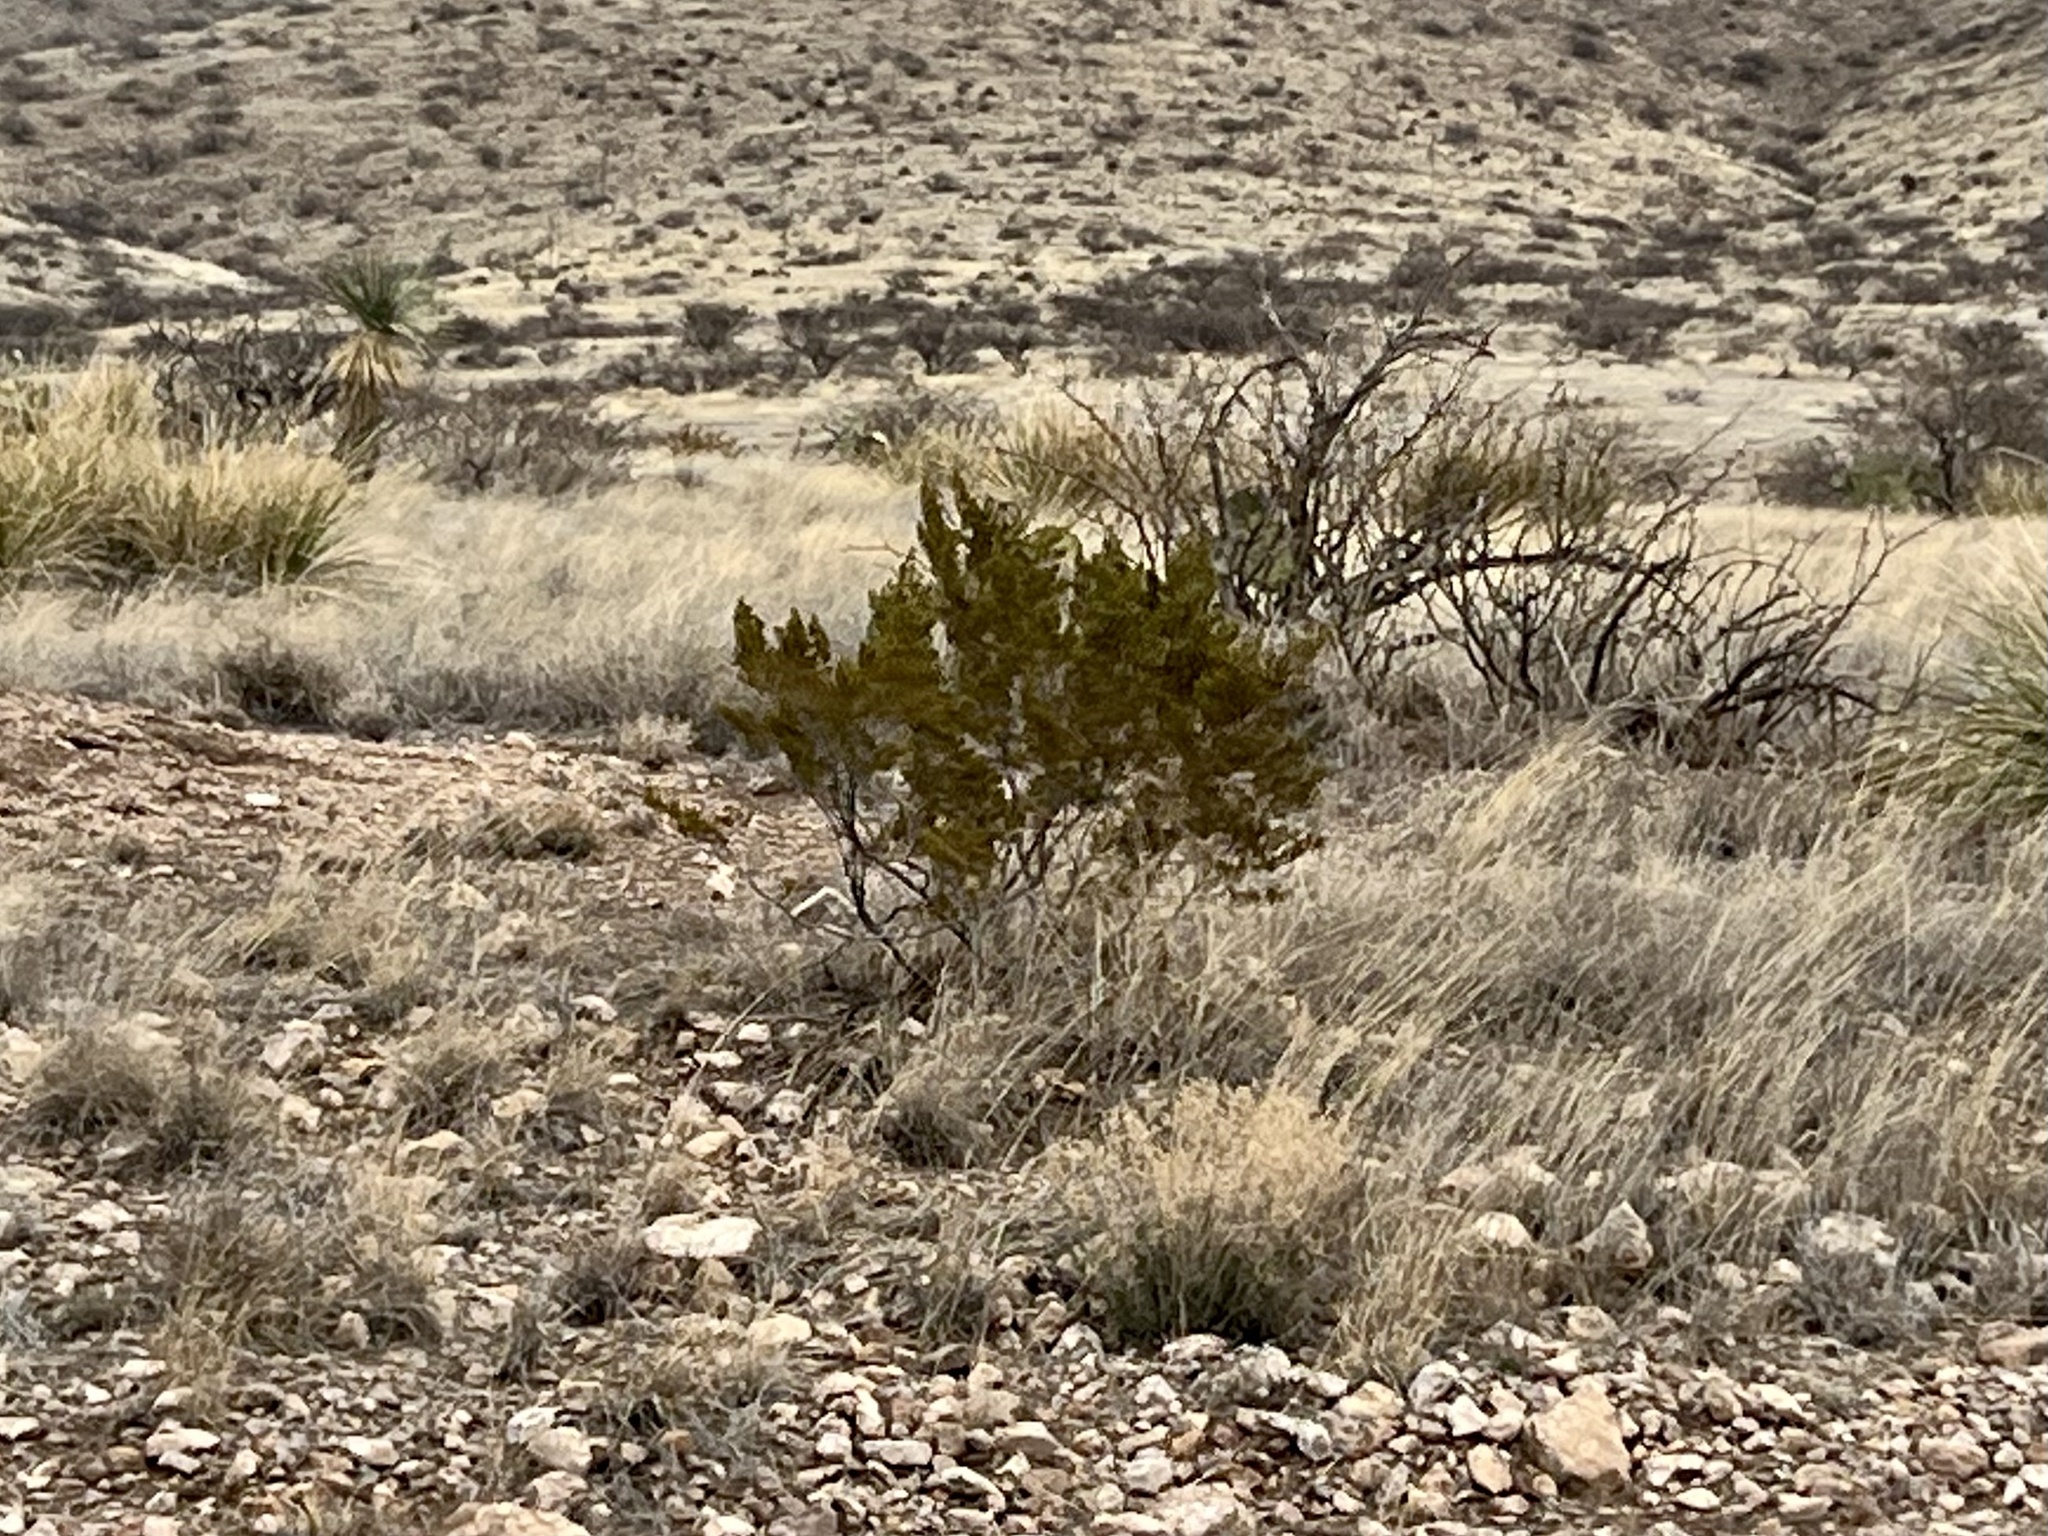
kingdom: Plantae
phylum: Tracheophyta
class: Magnoliopsida
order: Zygophyllales
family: Zygophyllaceae
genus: Larrea
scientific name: Larrea tridentata
